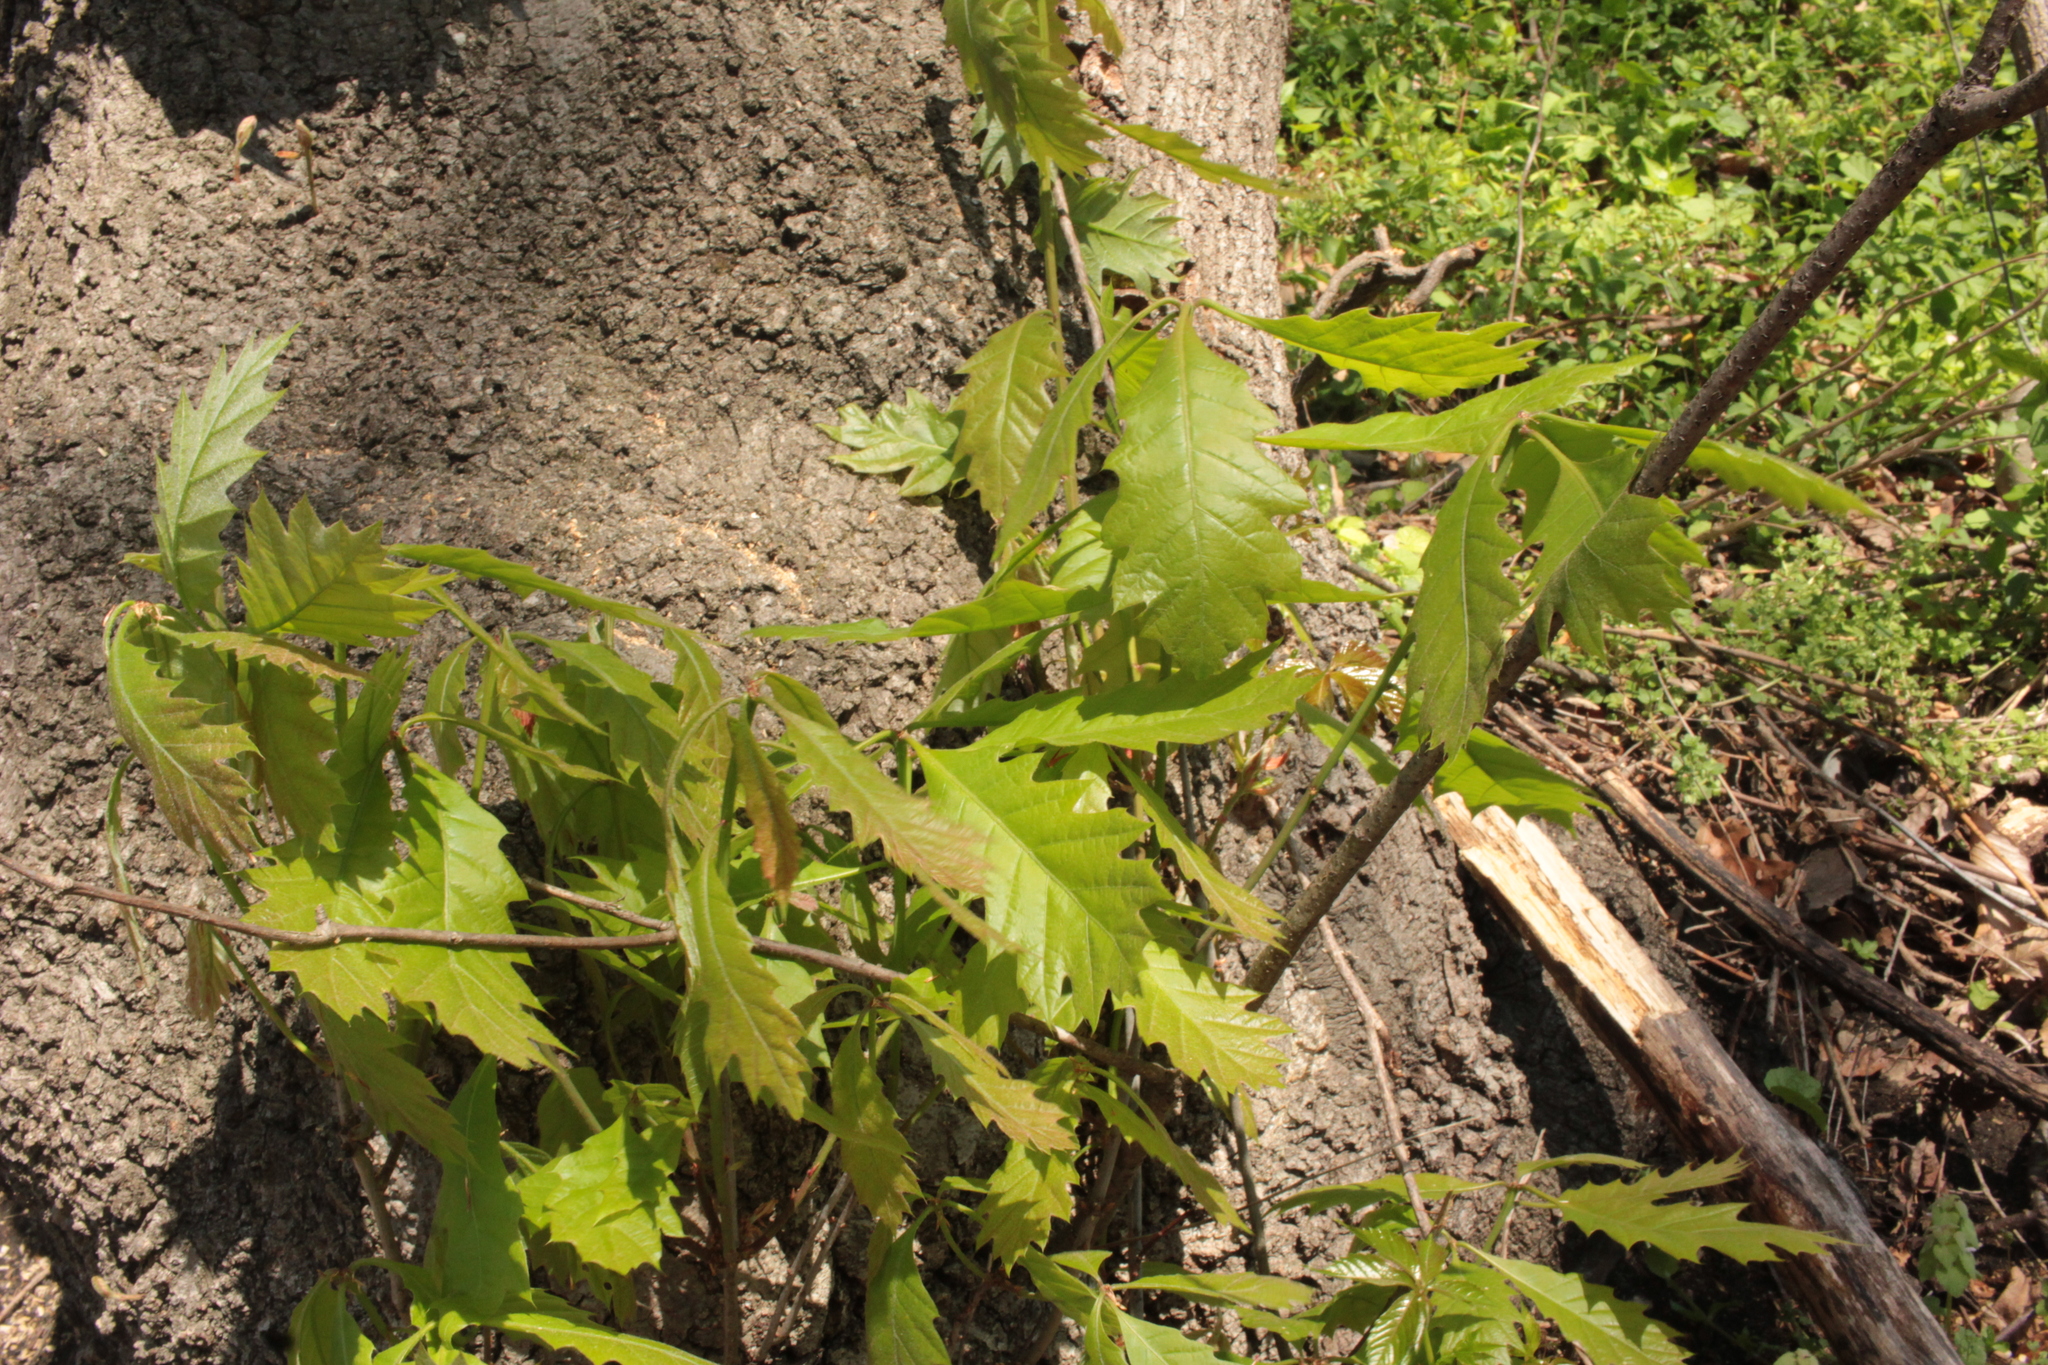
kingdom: Plantae
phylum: Tracheophyta
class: Magnoliopsida
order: Fagales
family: Fagaceae
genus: Quercus
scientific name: Quercus rubra
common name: Red oak
